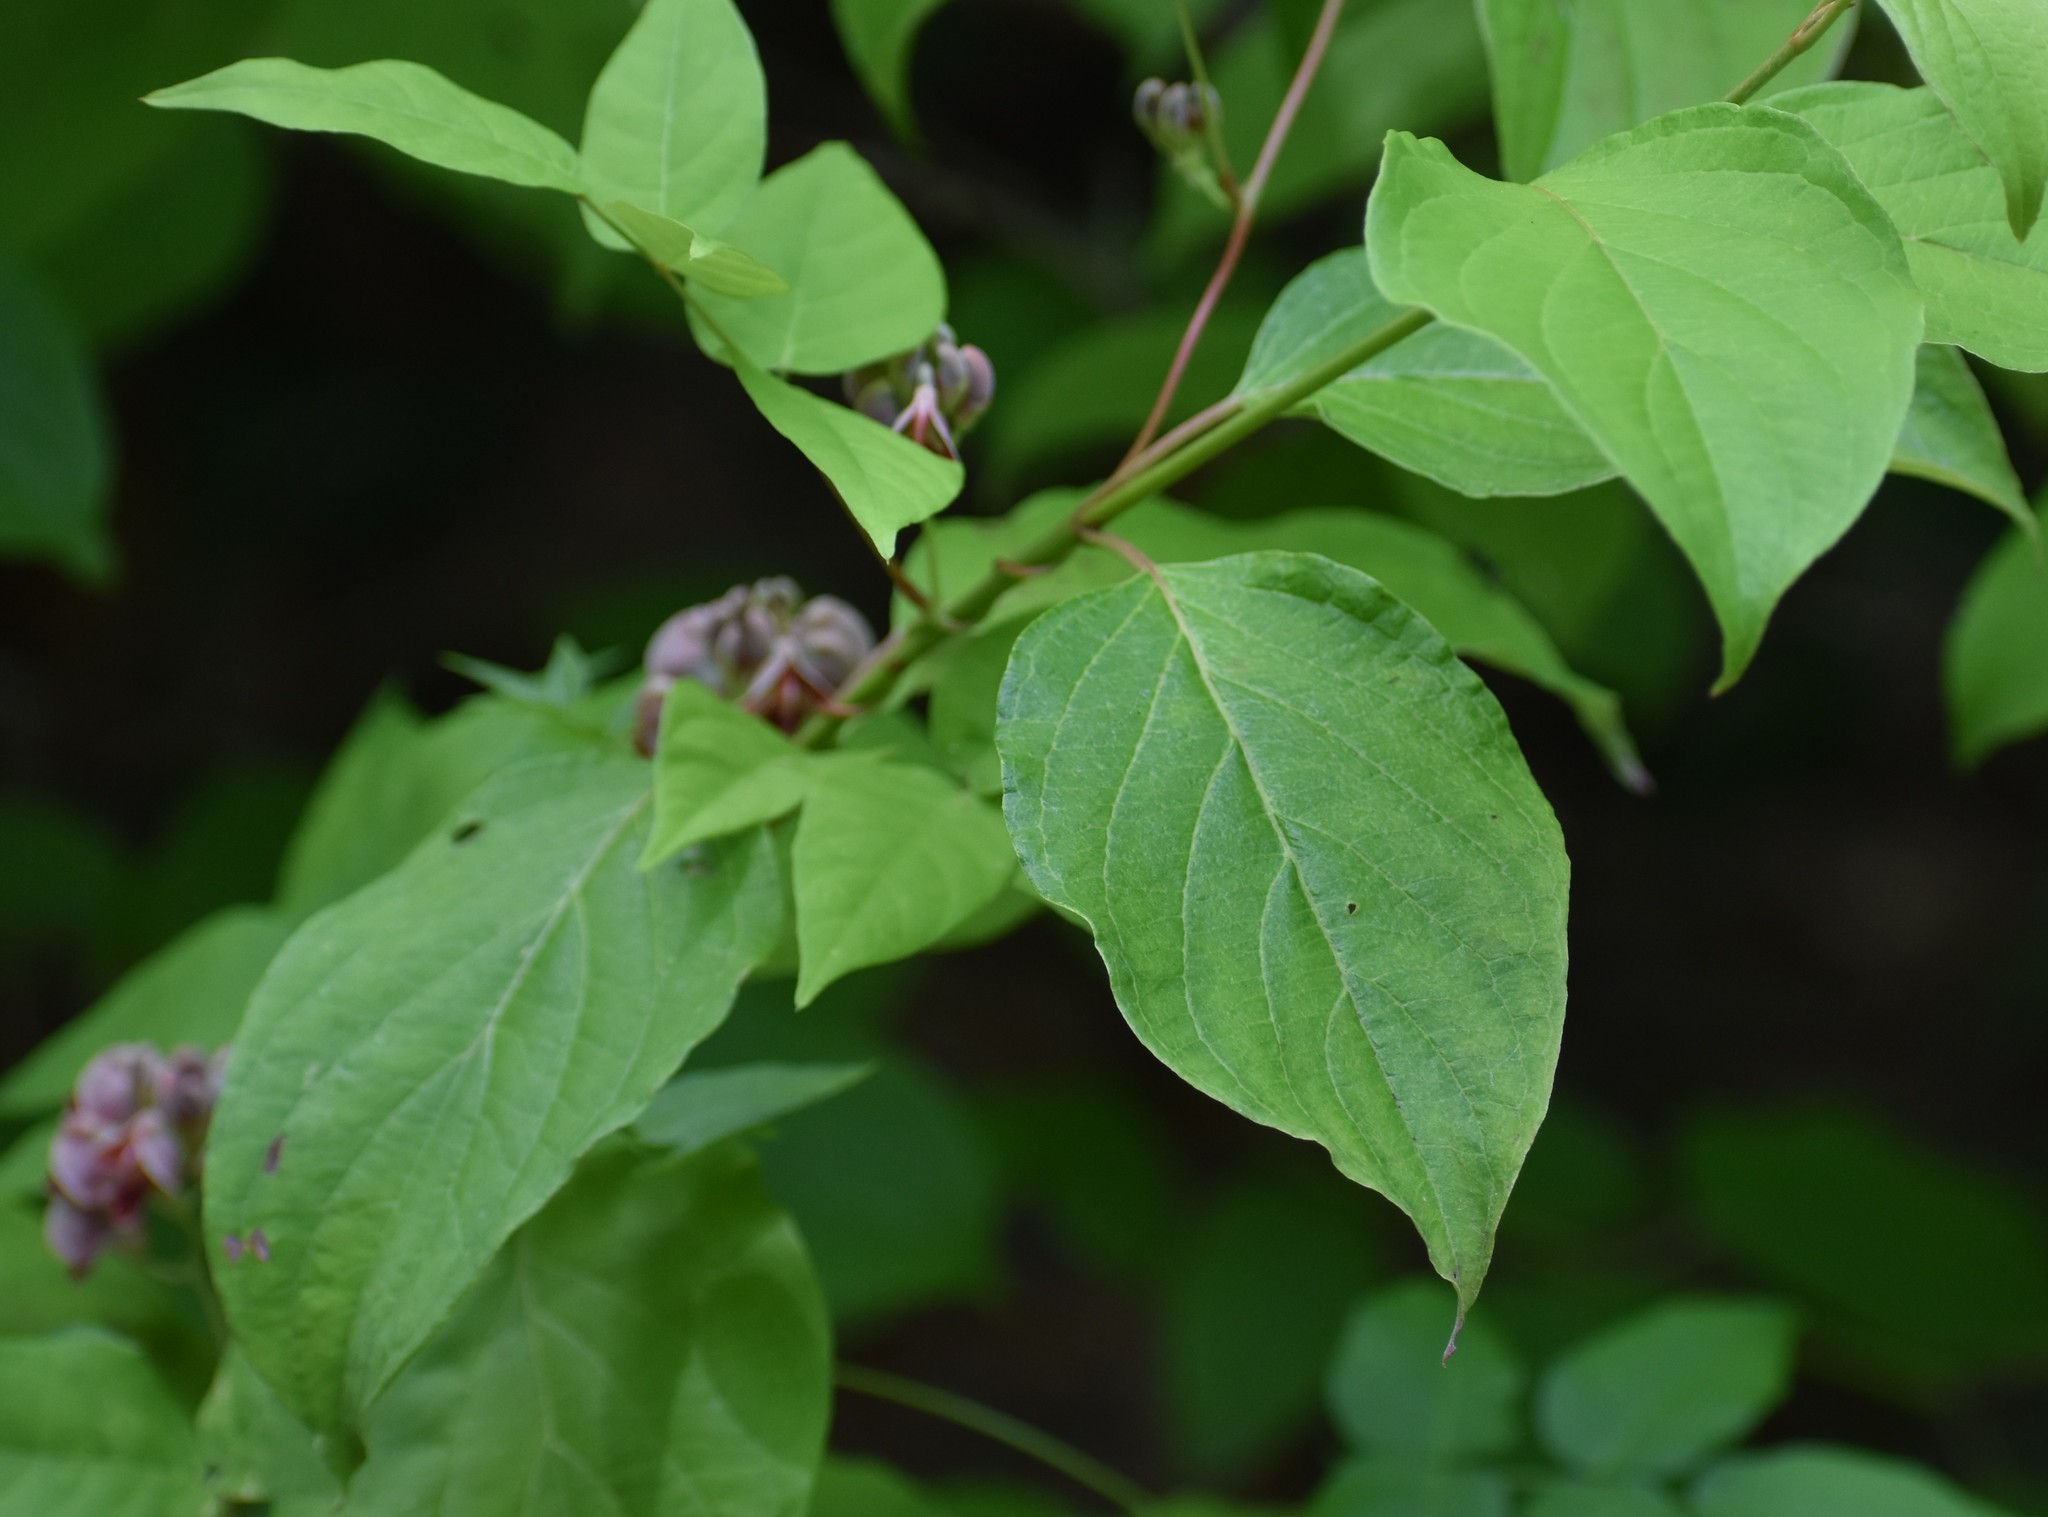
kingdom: Plantae
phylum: Tracheophyta
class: Magnoliopsida
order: Fabales
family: Fabaceae
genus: Apios
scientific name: Apios americana
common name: American potato-bean
